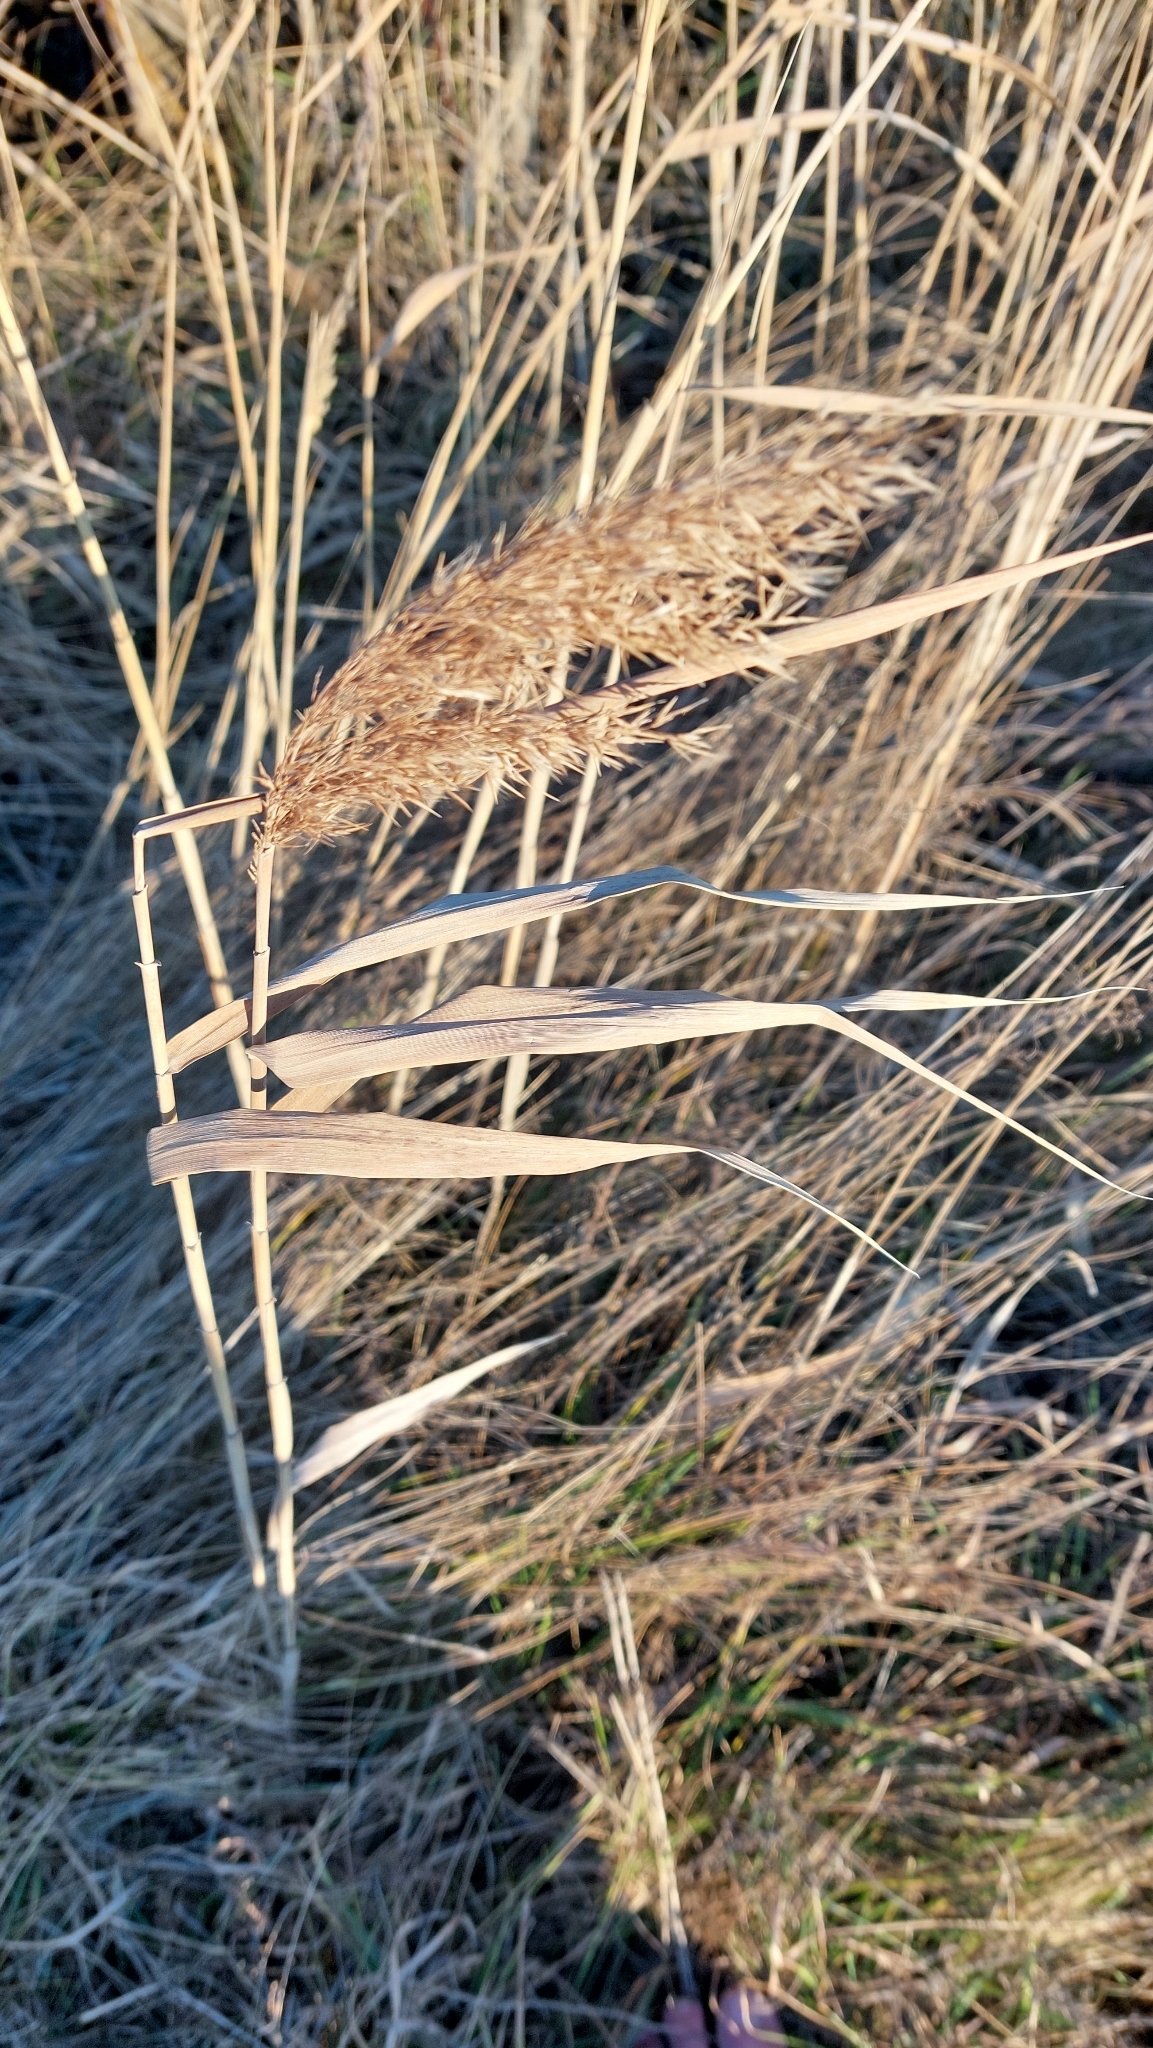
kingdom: Plantae
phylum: Tracheophyta
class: Liliopsida
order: Poales
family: Poaceae
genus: Phragmites
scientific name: Phragmites australis
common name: Common reed
